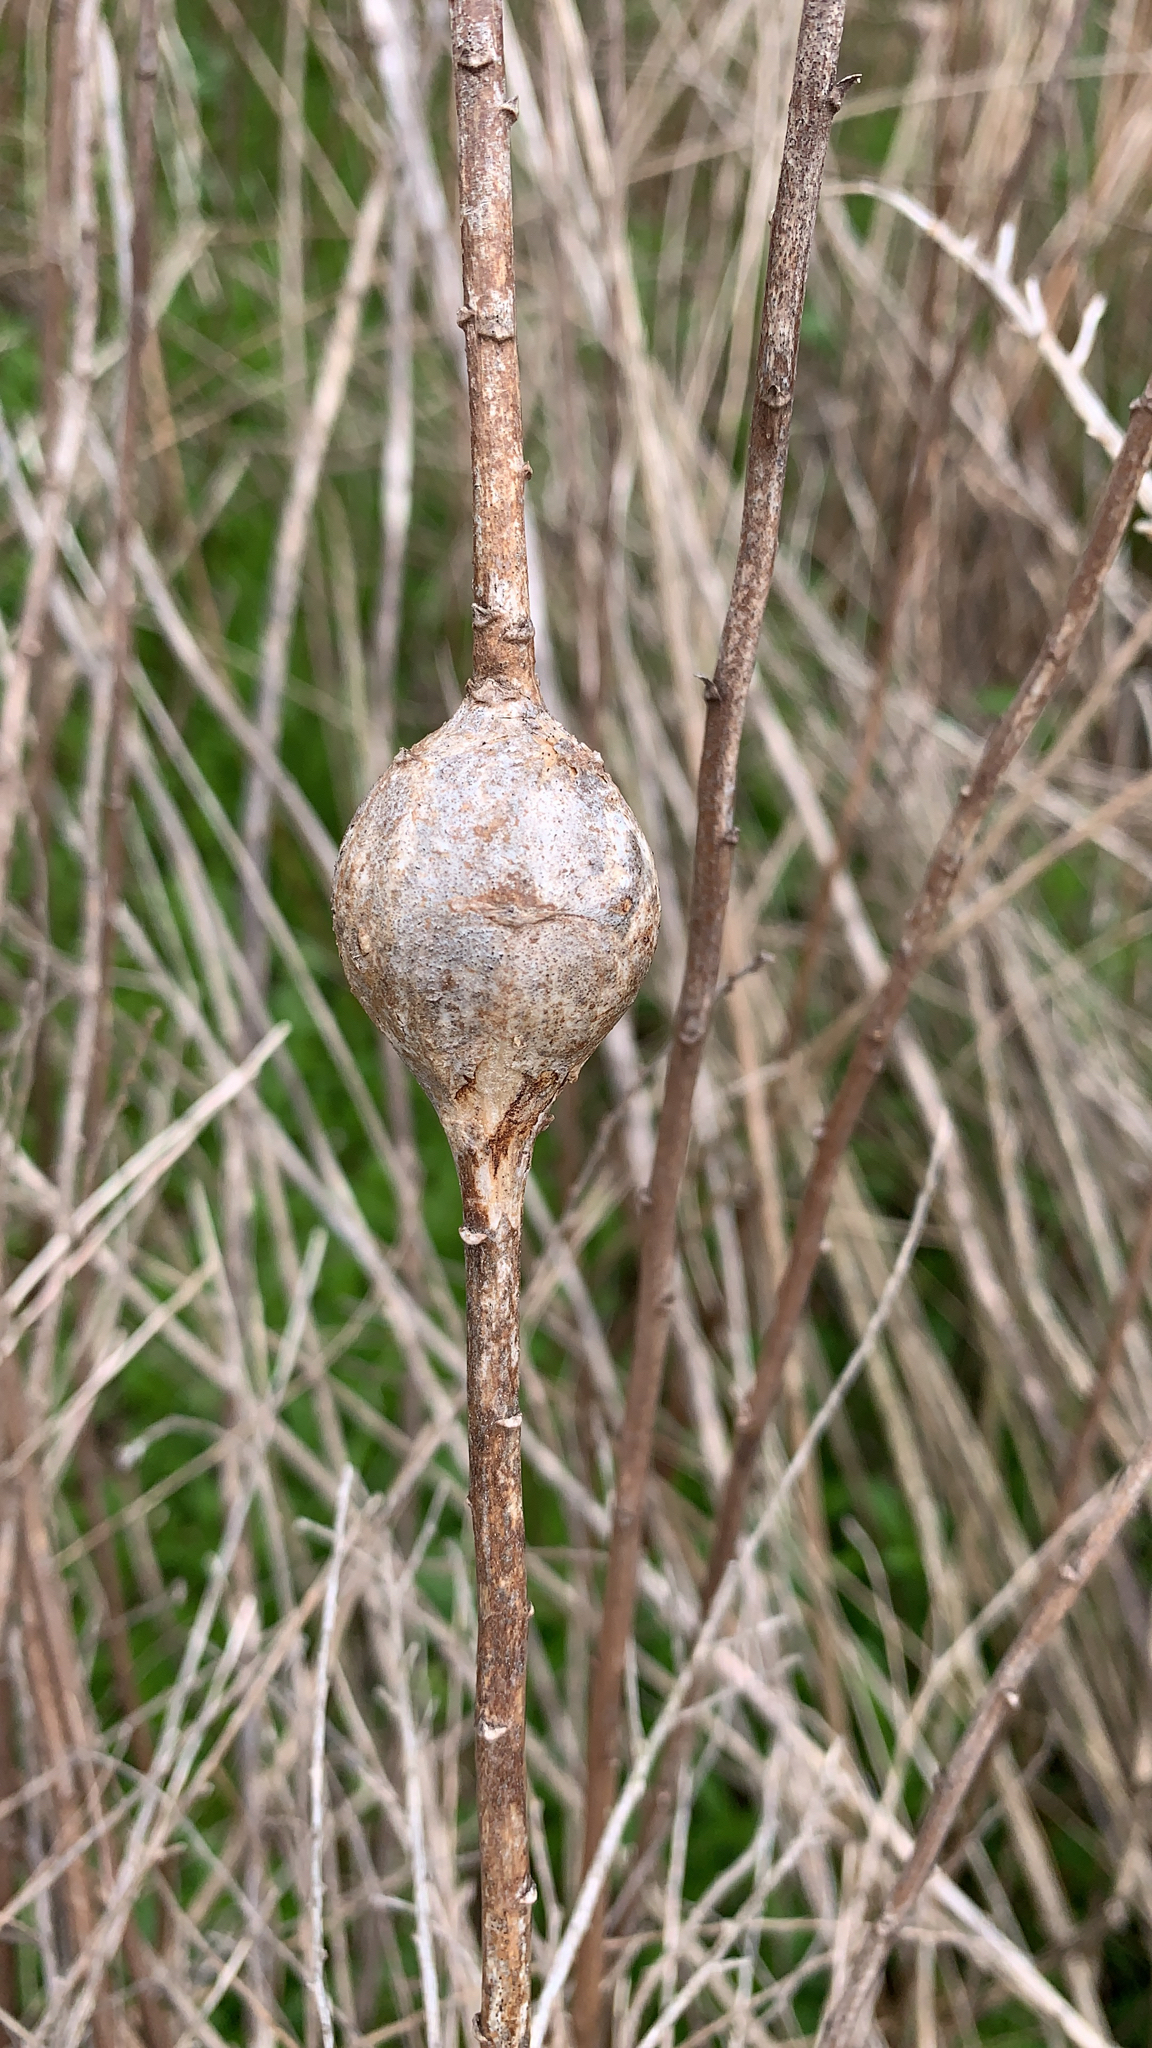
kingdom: Animalia
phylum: Arthropoda
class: Insecta
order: Diptera
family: Tephritidae
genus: Eurosta
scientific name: Eurosta solidaginis
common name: Goldenrod gall fly
